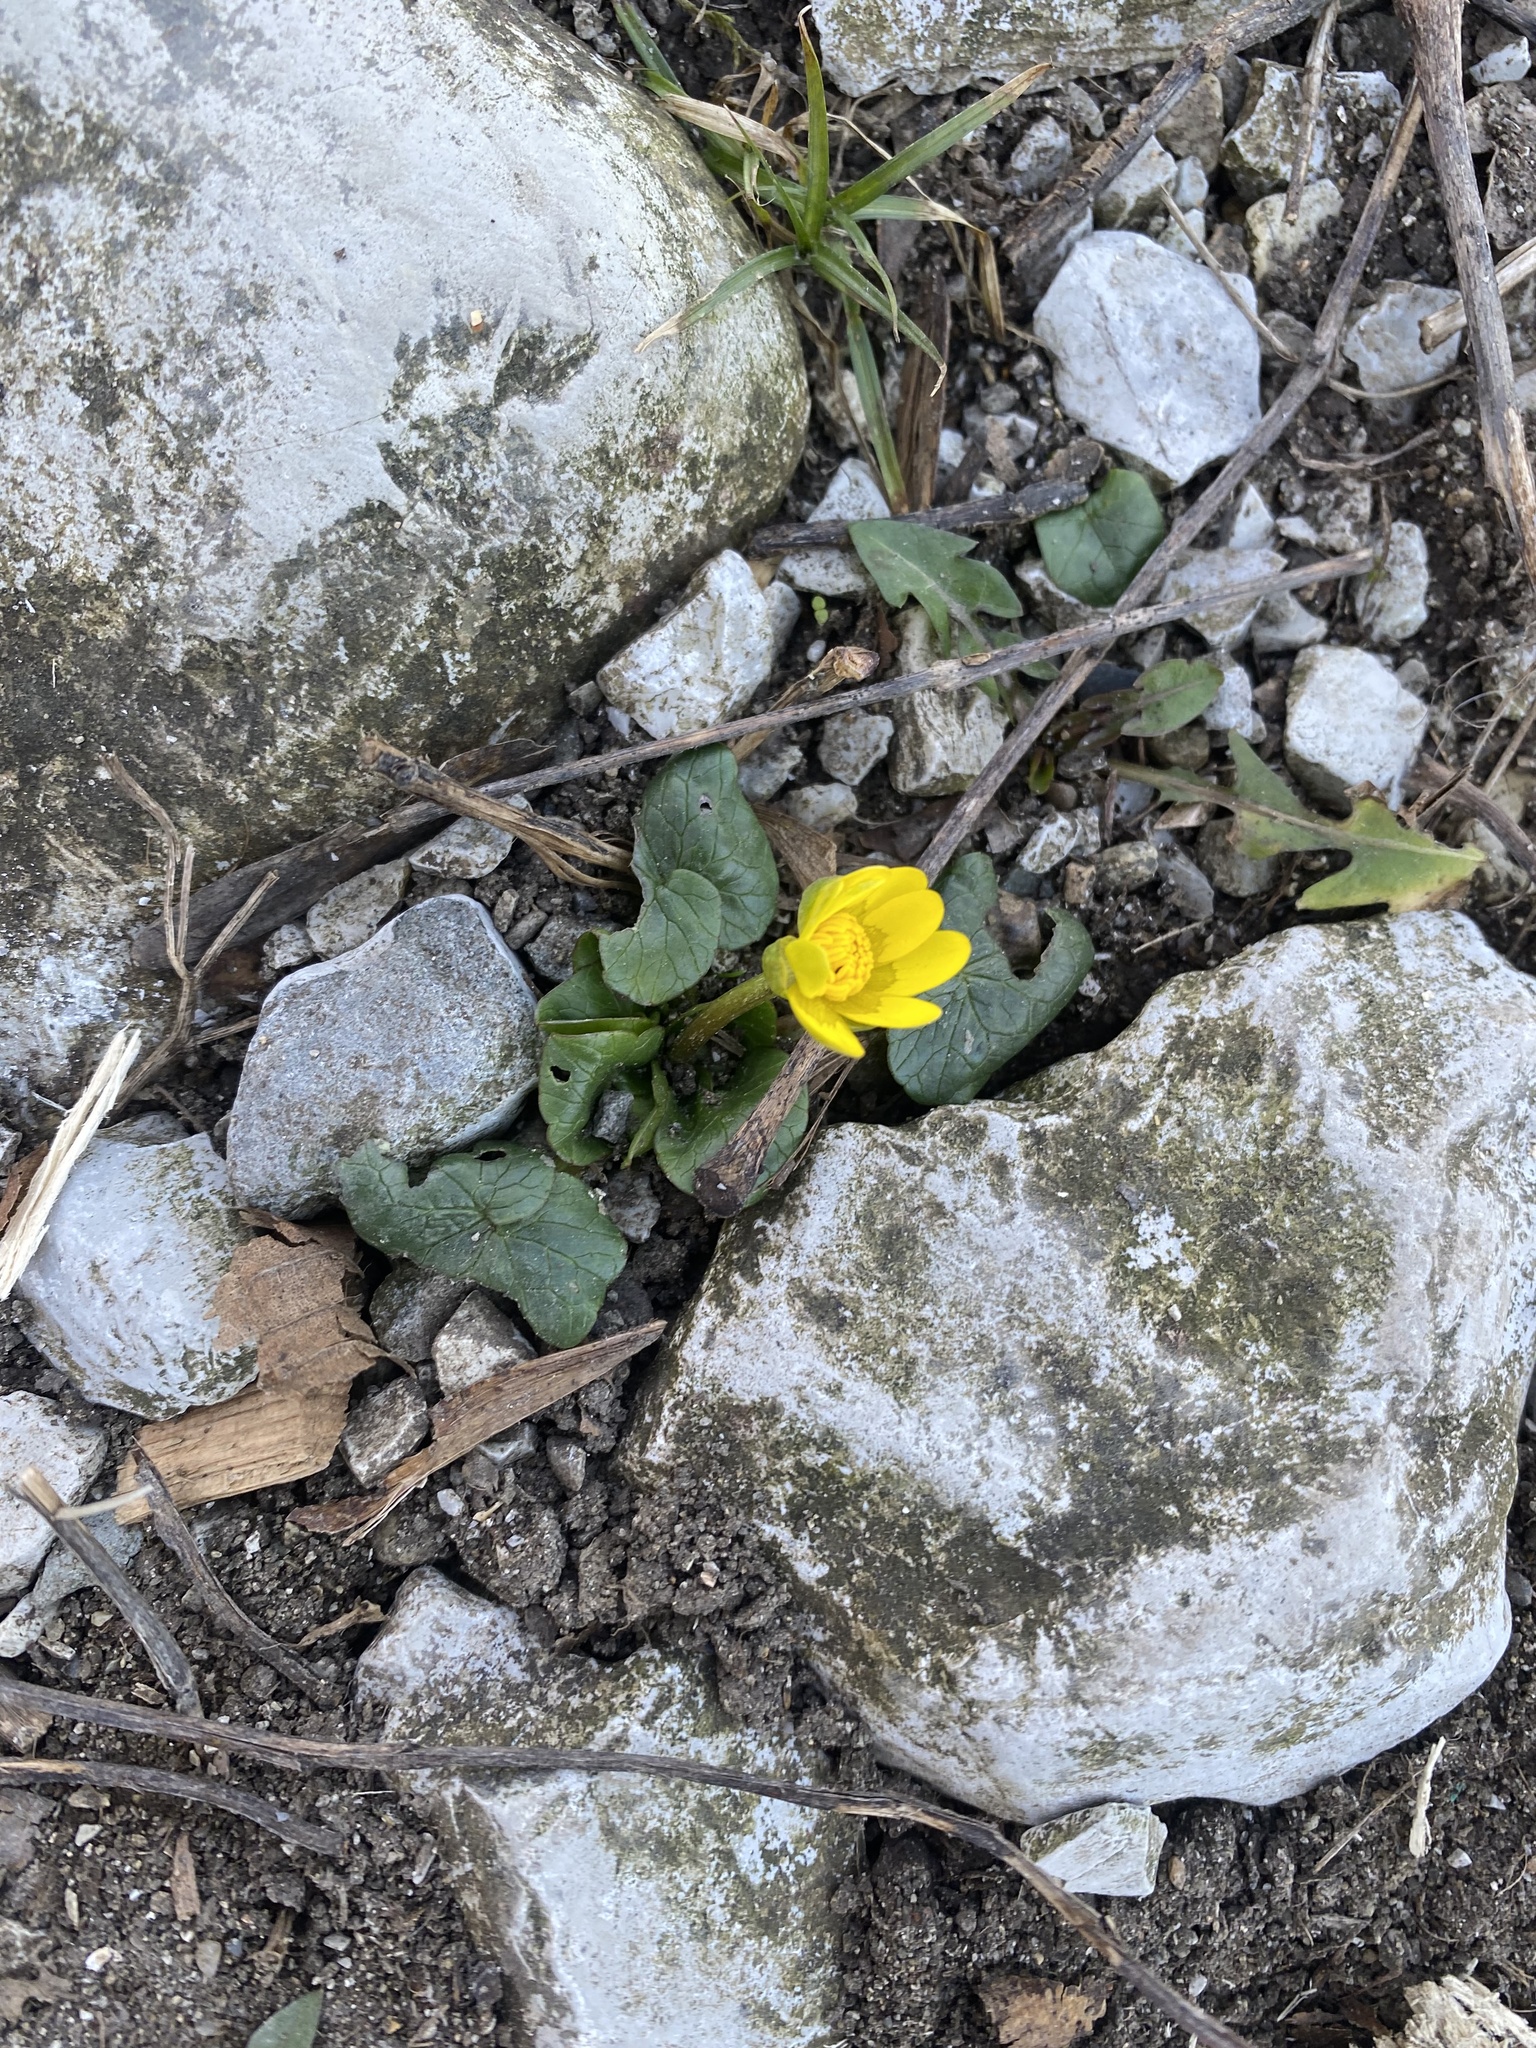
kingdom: Plantae
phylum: Tracheophyta
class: Magnoliopsida
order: Ranunculales
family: Ranunculaceae
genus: Ficaria
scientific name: Ficaria verna
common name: Lesser celandine
